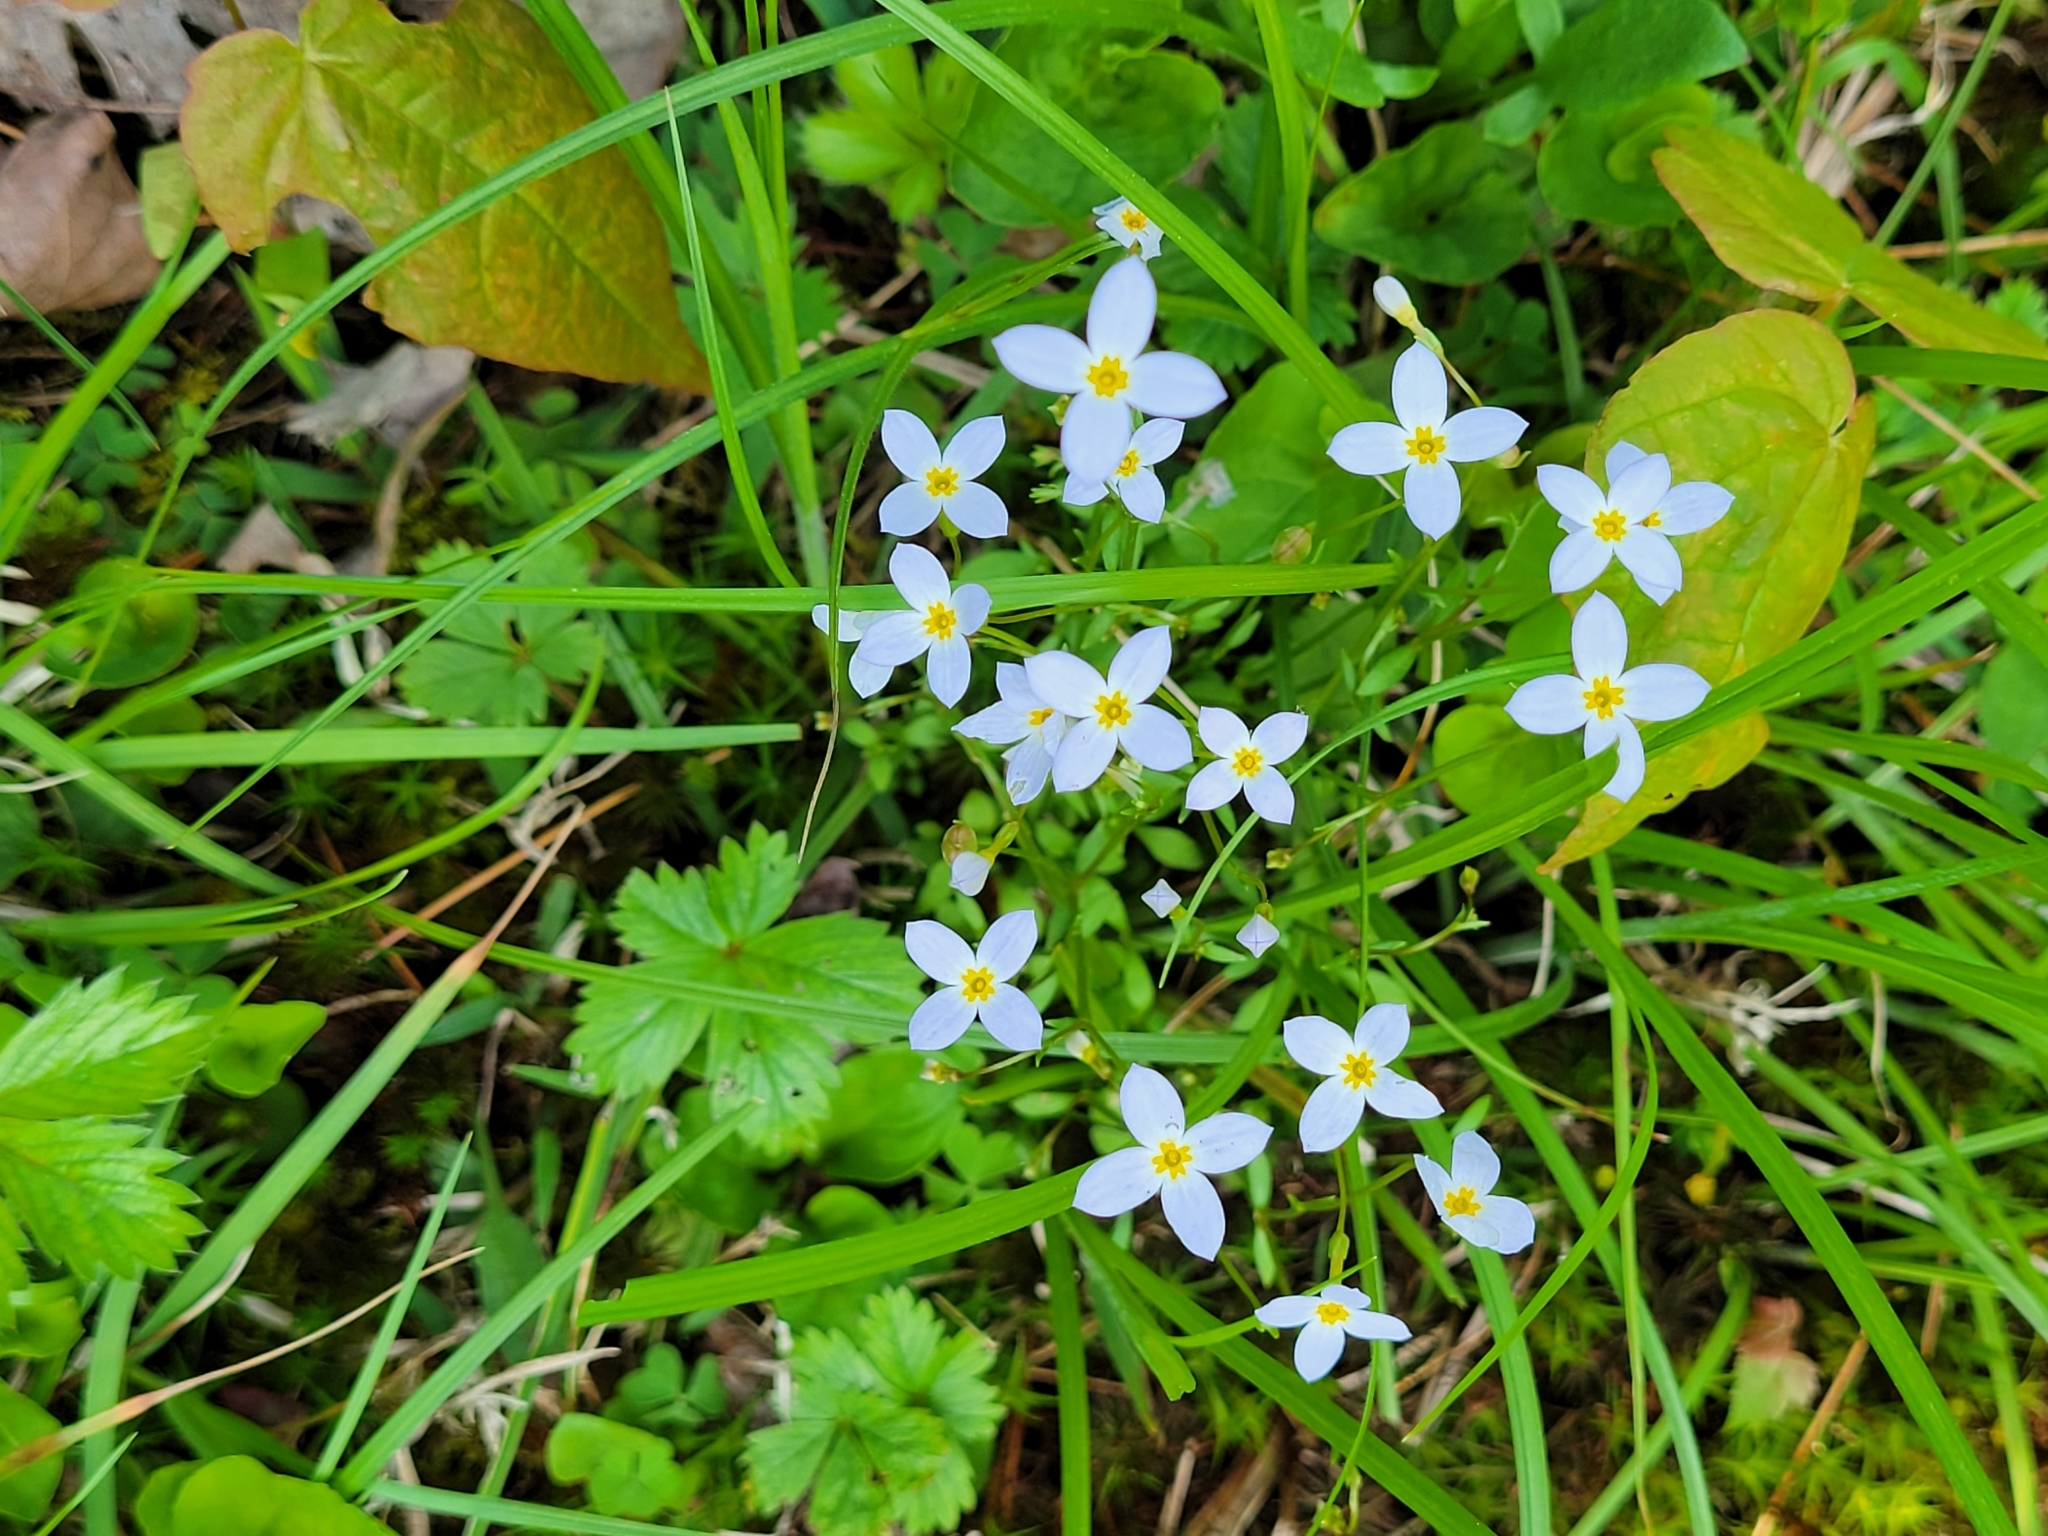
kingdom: Plantae
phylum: Tracheophyta
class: Magnoliopsida
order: Gentianales
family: Rubiaceae
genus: Houstonia
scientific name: Houstonia caerulea
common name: Bluets
